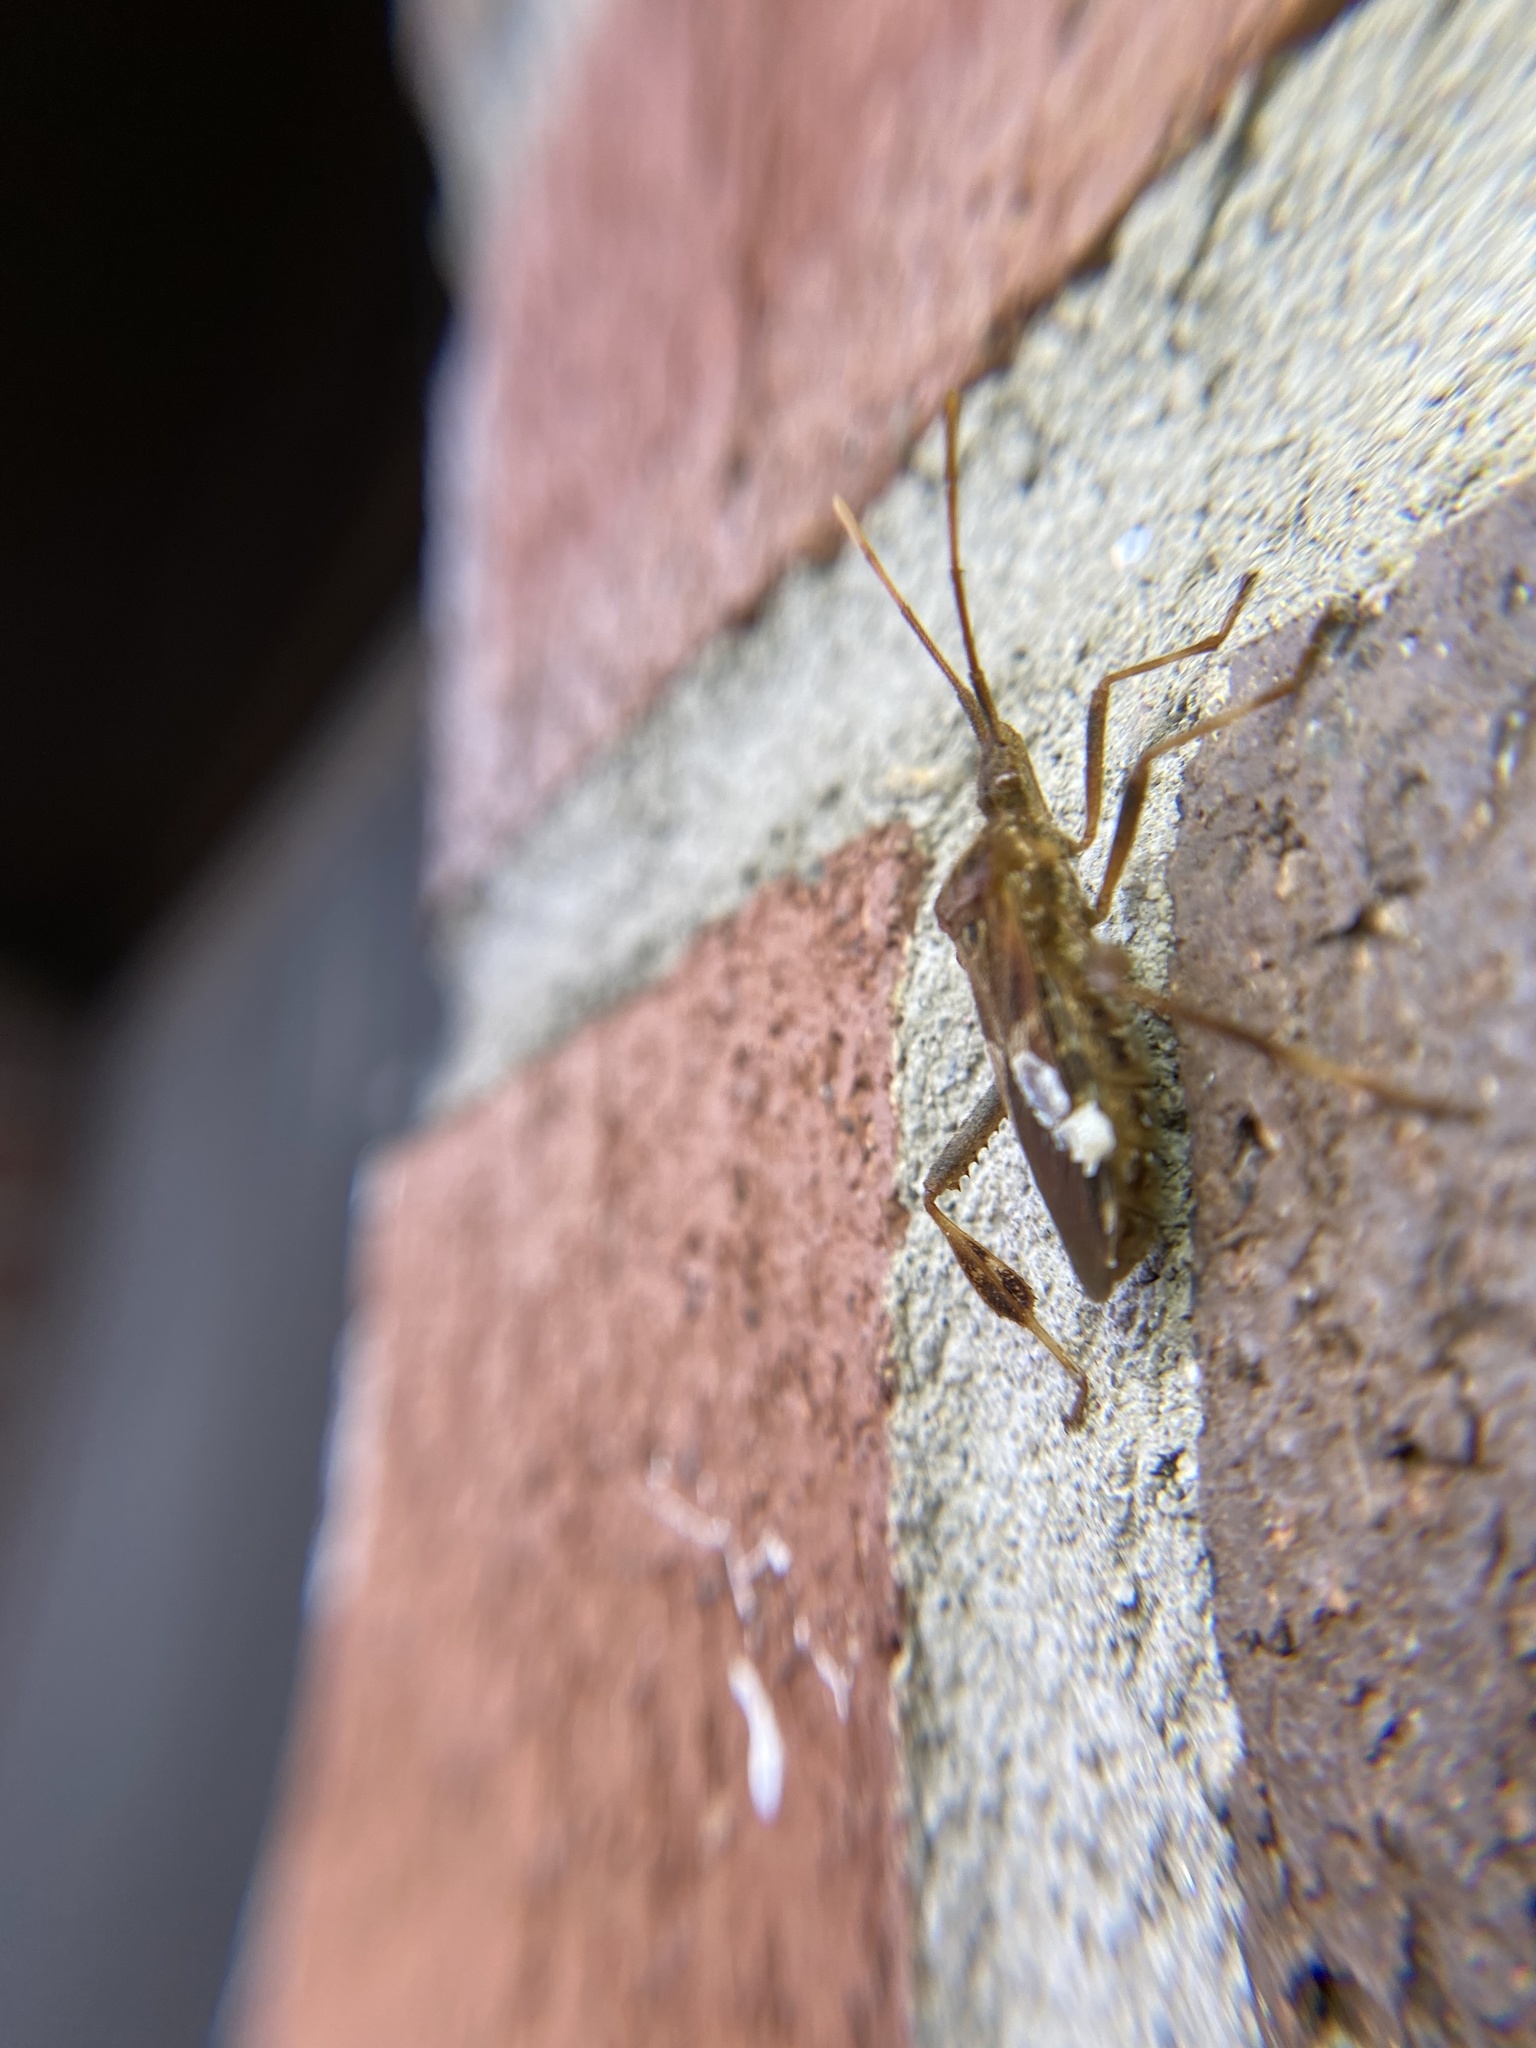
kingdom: Animalia
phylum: Arthropoda
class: Insecta
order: Hemiptera
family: Coreidae
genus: Leptoglossus
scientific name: Leptoglossus occidentalis
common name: Western conifer-seed bug
